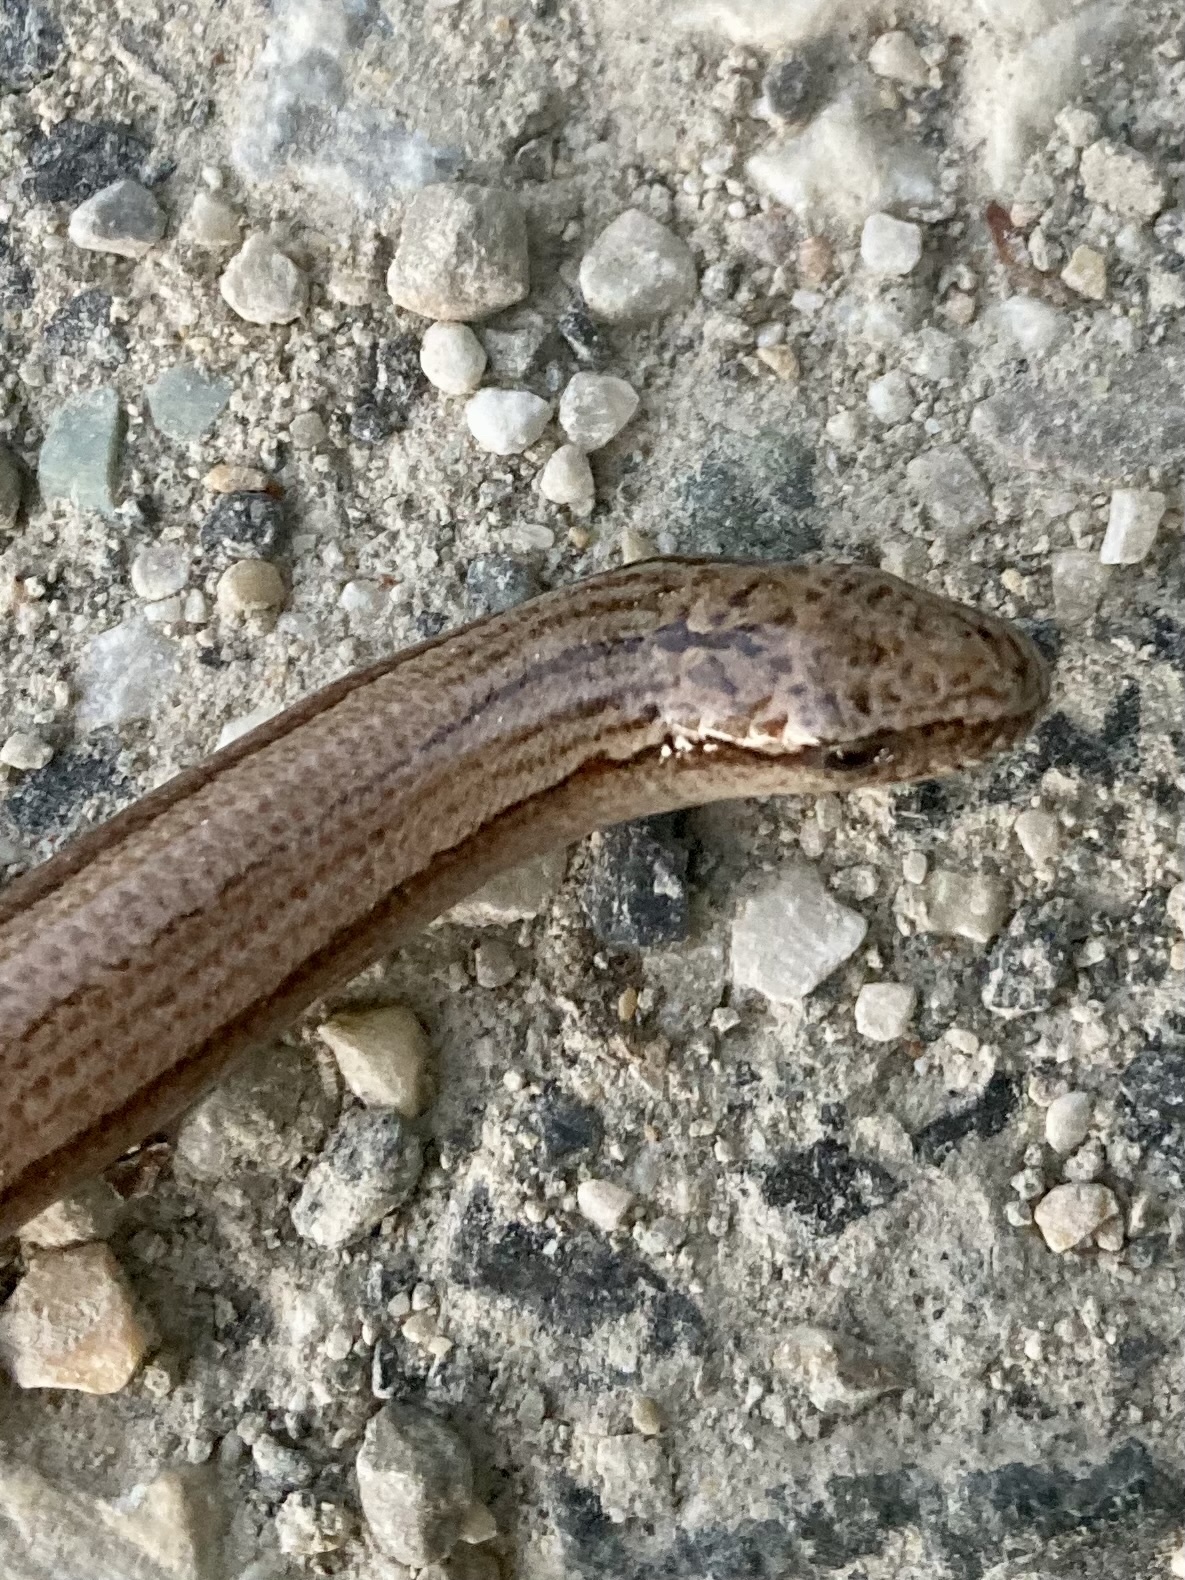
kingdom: Animalia
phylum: Chordata
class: Squamata
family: Anguidae
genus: Anguis
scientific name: Anguis veronensis
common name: Italian slow worm
